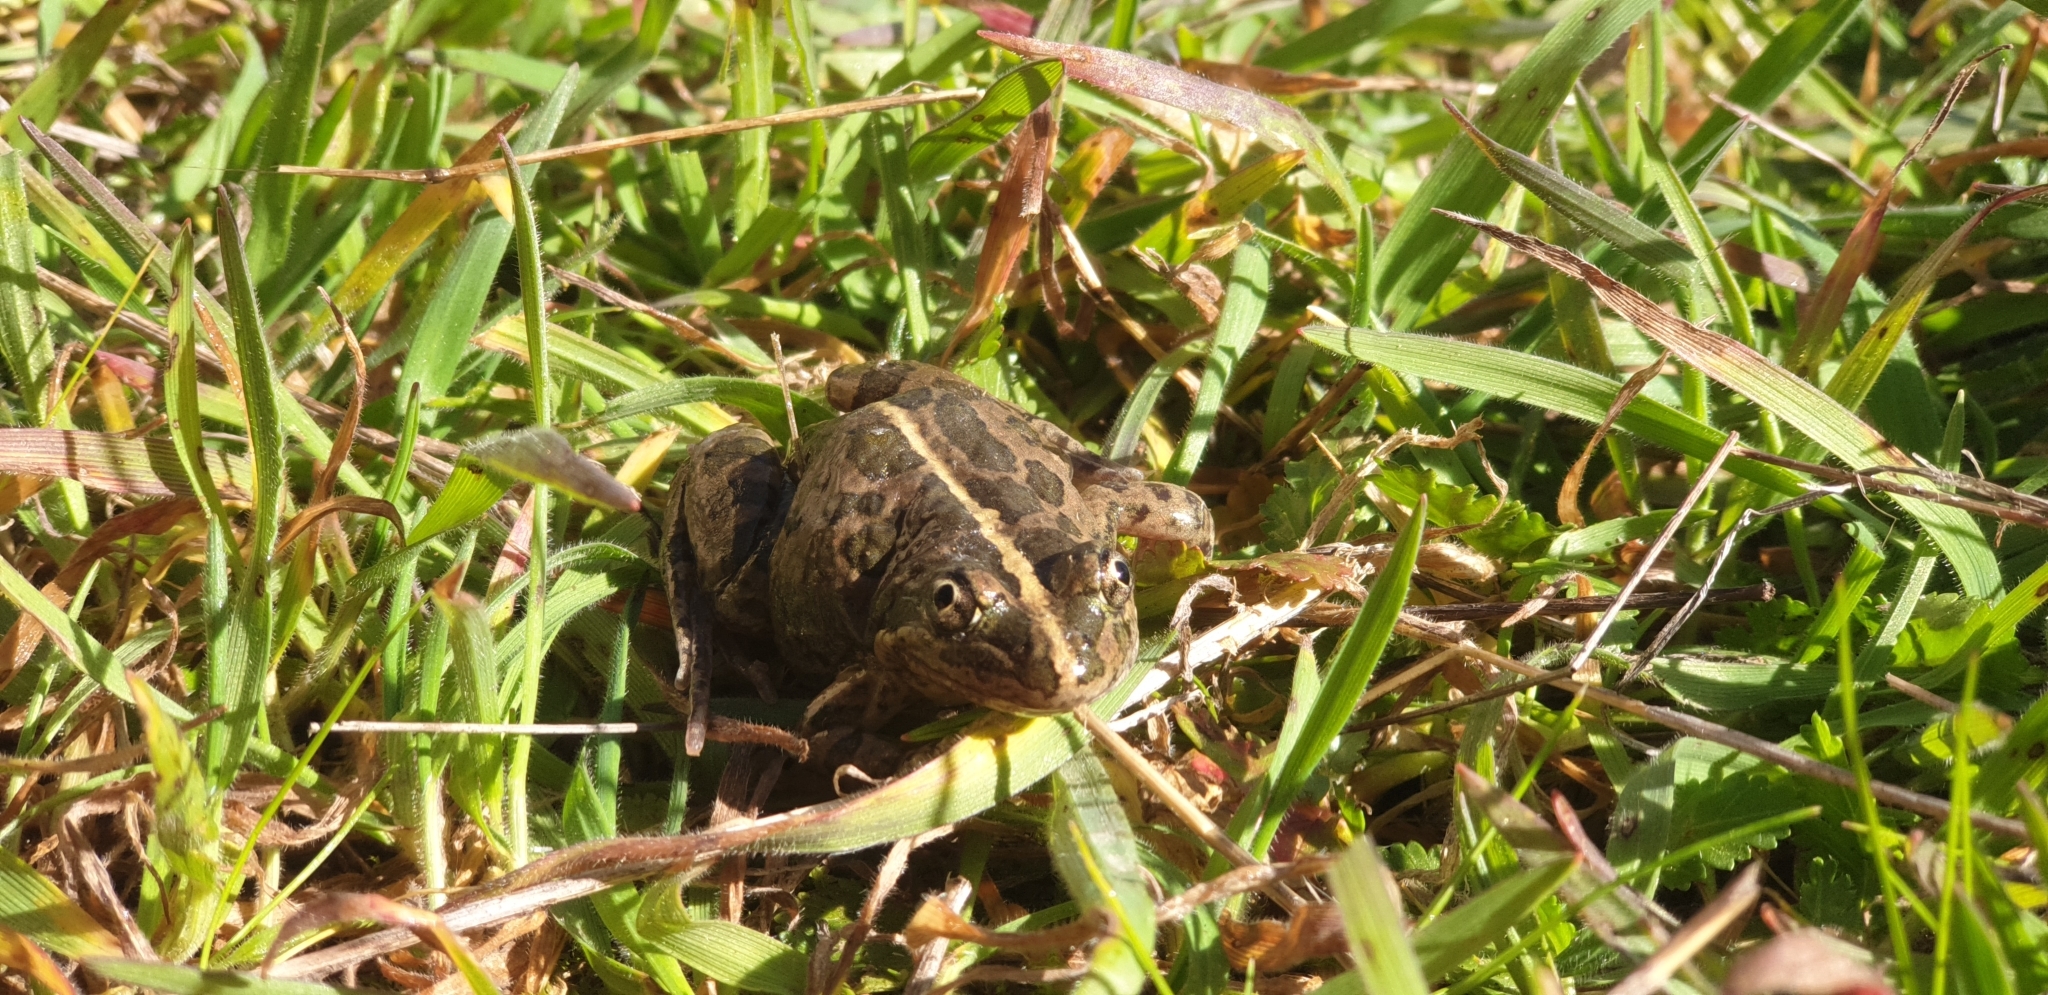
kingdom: Animalia
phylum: Chordata
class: Amphibia
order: Anura
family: Limnodynastidae
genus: Limnodynastes
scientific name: Limnodynastes tasmaniensis
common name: Spotted marsh frog
